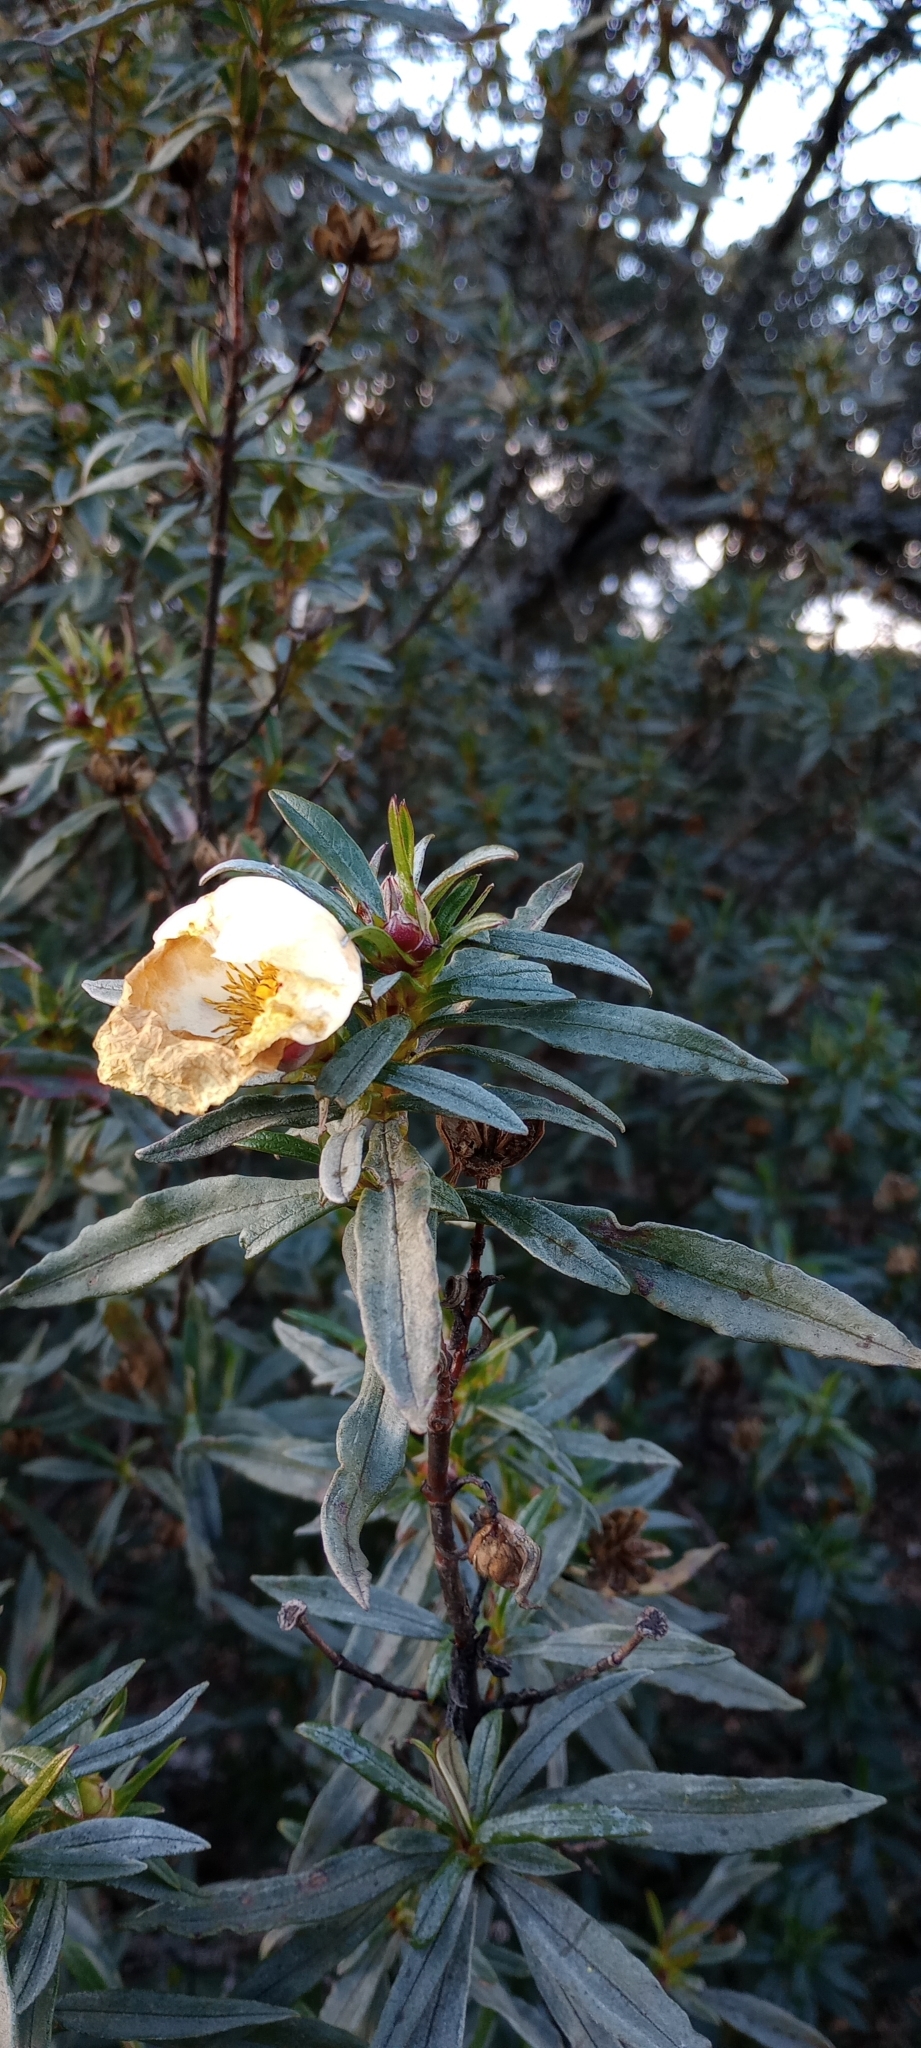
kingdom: Plantae
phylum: Tracheophyta
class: Magnoliopsida
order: Malvales
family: Cistaceae
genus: Cistus
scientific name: Cistus ladanifer
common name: Common gum cistus
